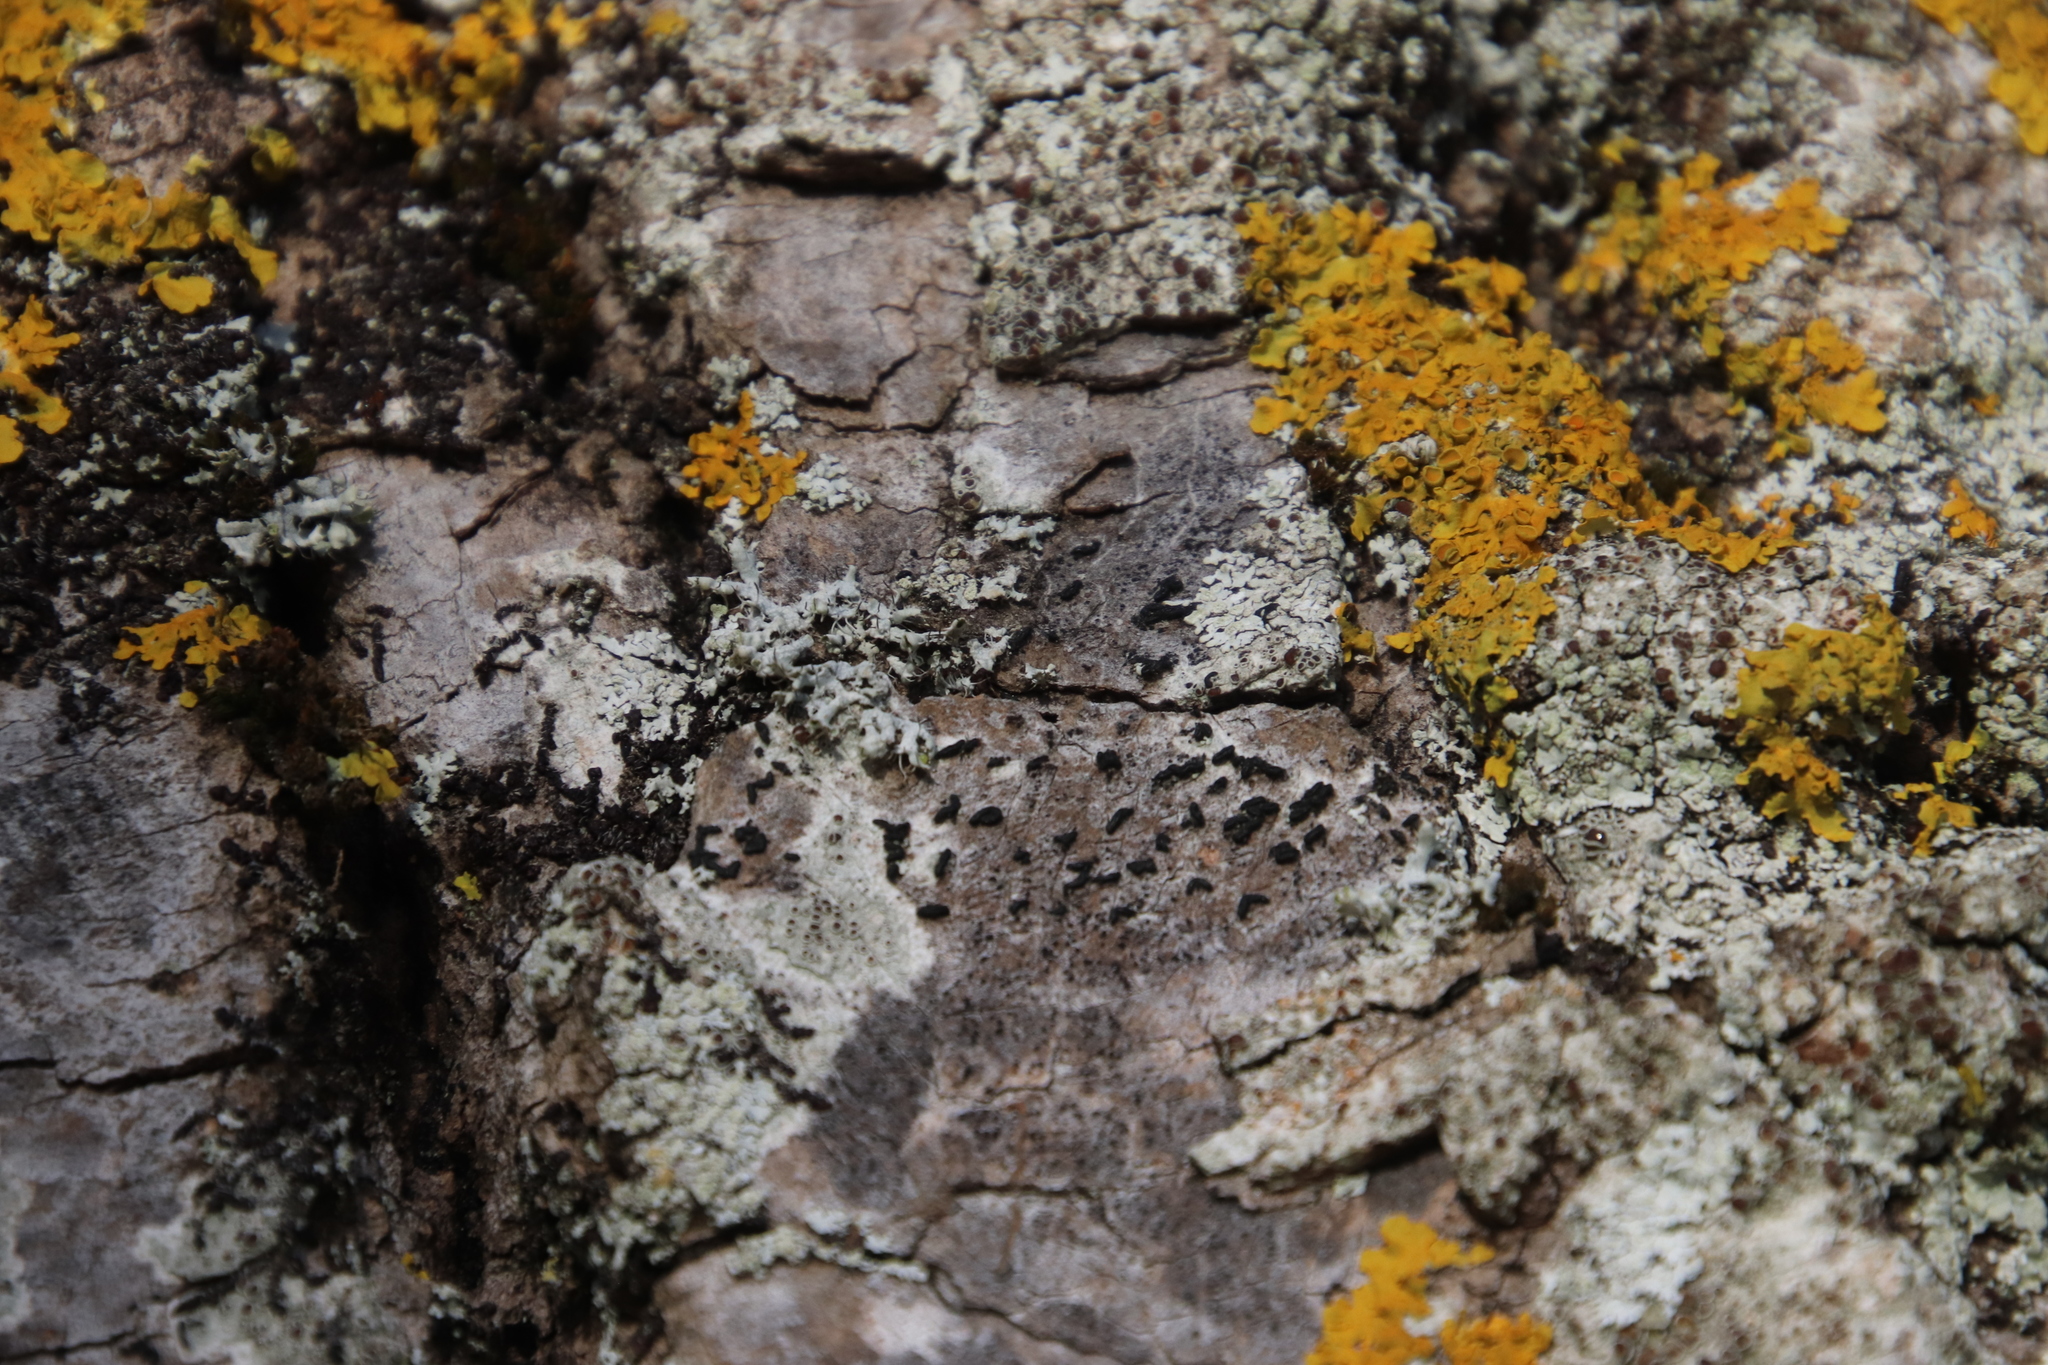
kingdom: Fungi
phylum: Ascomycota
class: Lecanoromycetes
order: Caliciales
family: Physciaceae
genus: Physcia
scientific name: Physcia adscendens
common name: Hooded rosette lichen
